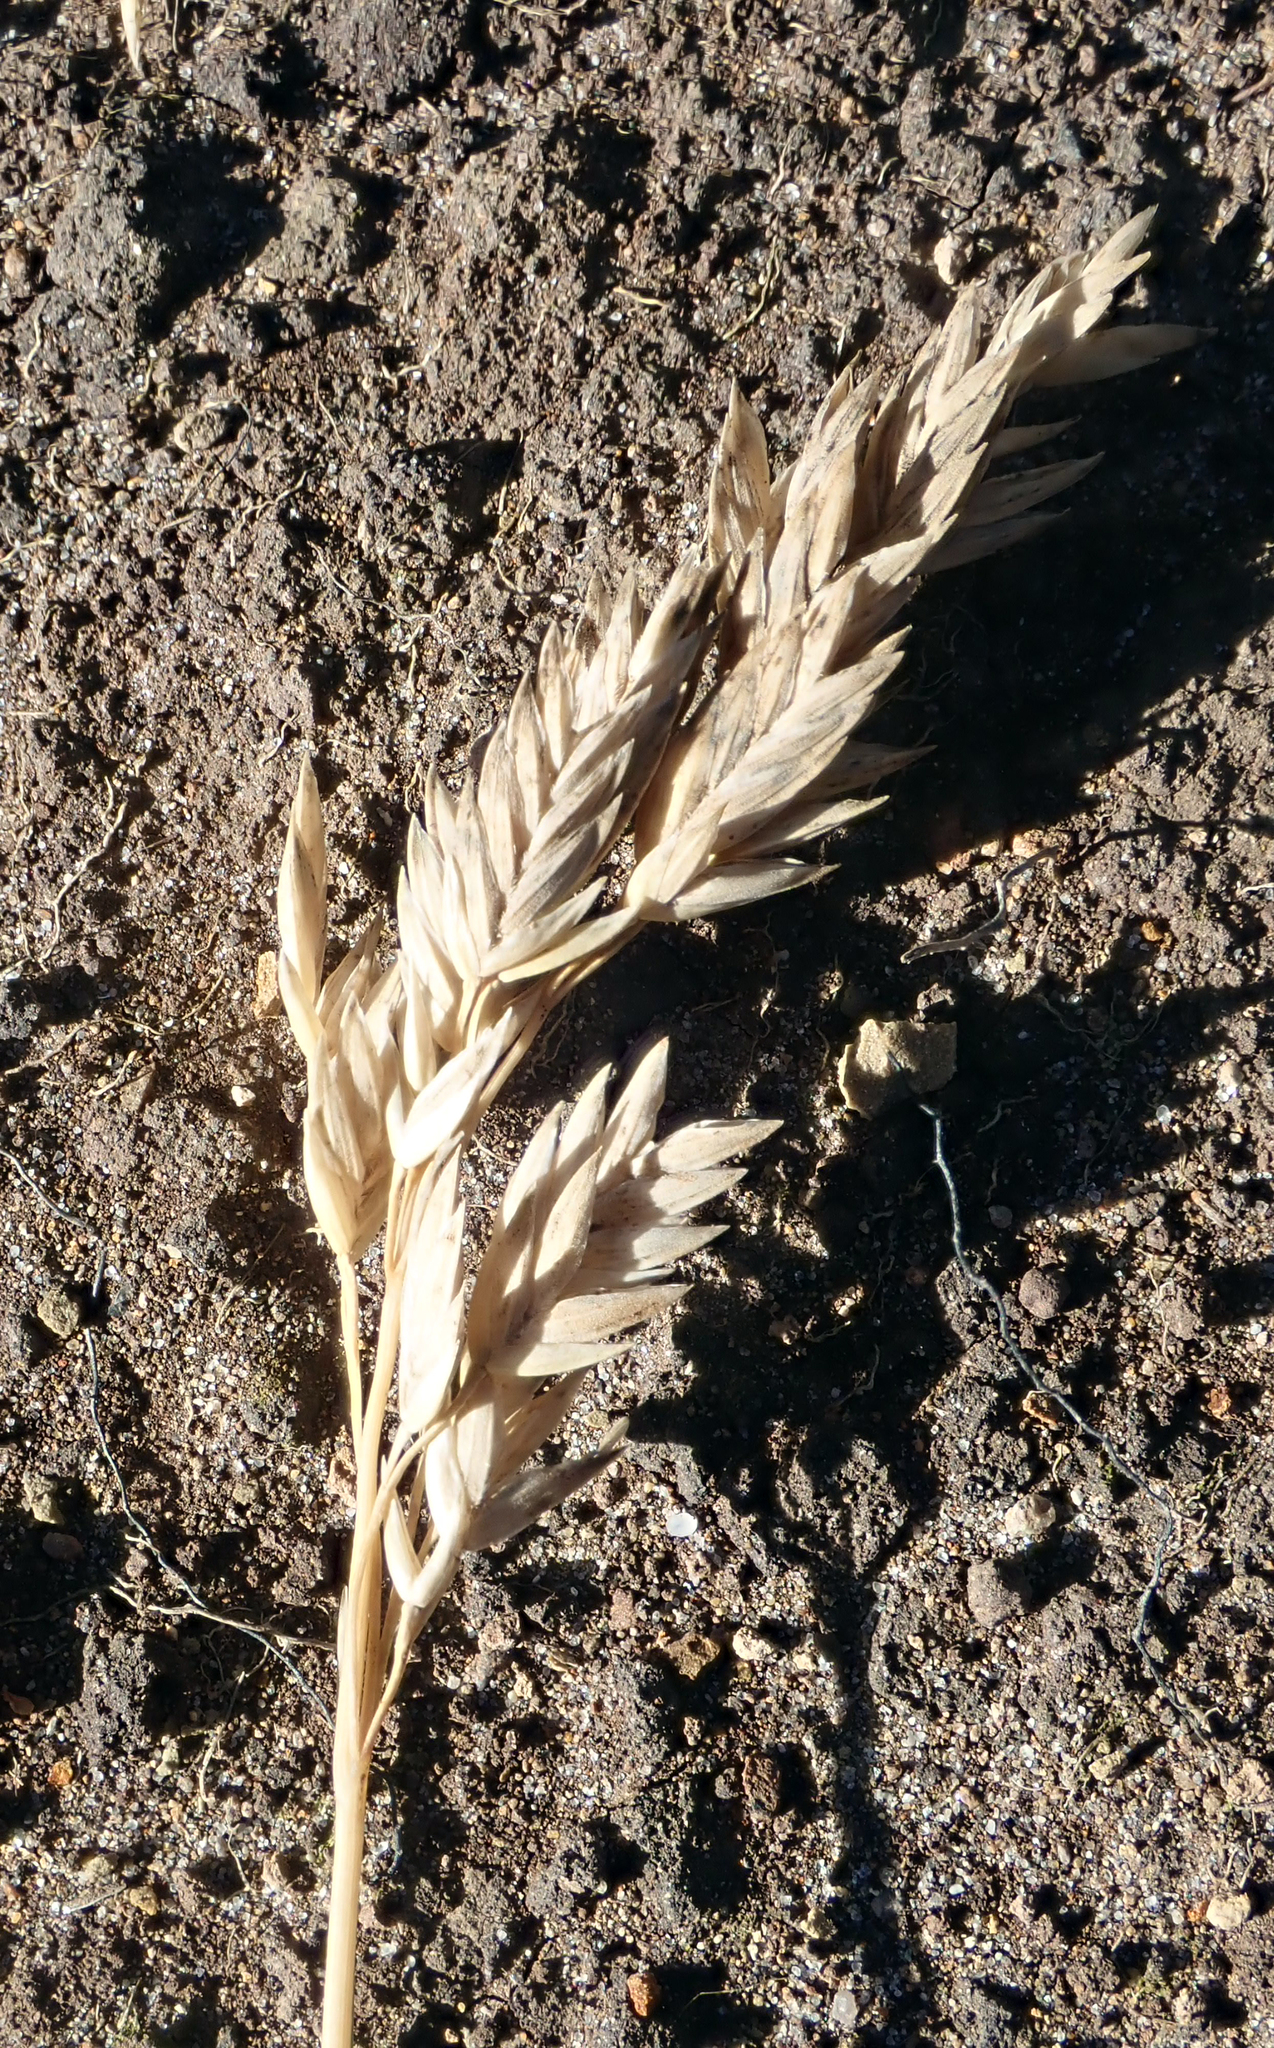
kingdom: Plantae
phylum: Tracheophyta
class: Liliopsida
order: Poales
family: Poaceae
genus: Poa
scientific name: Poa astonii
